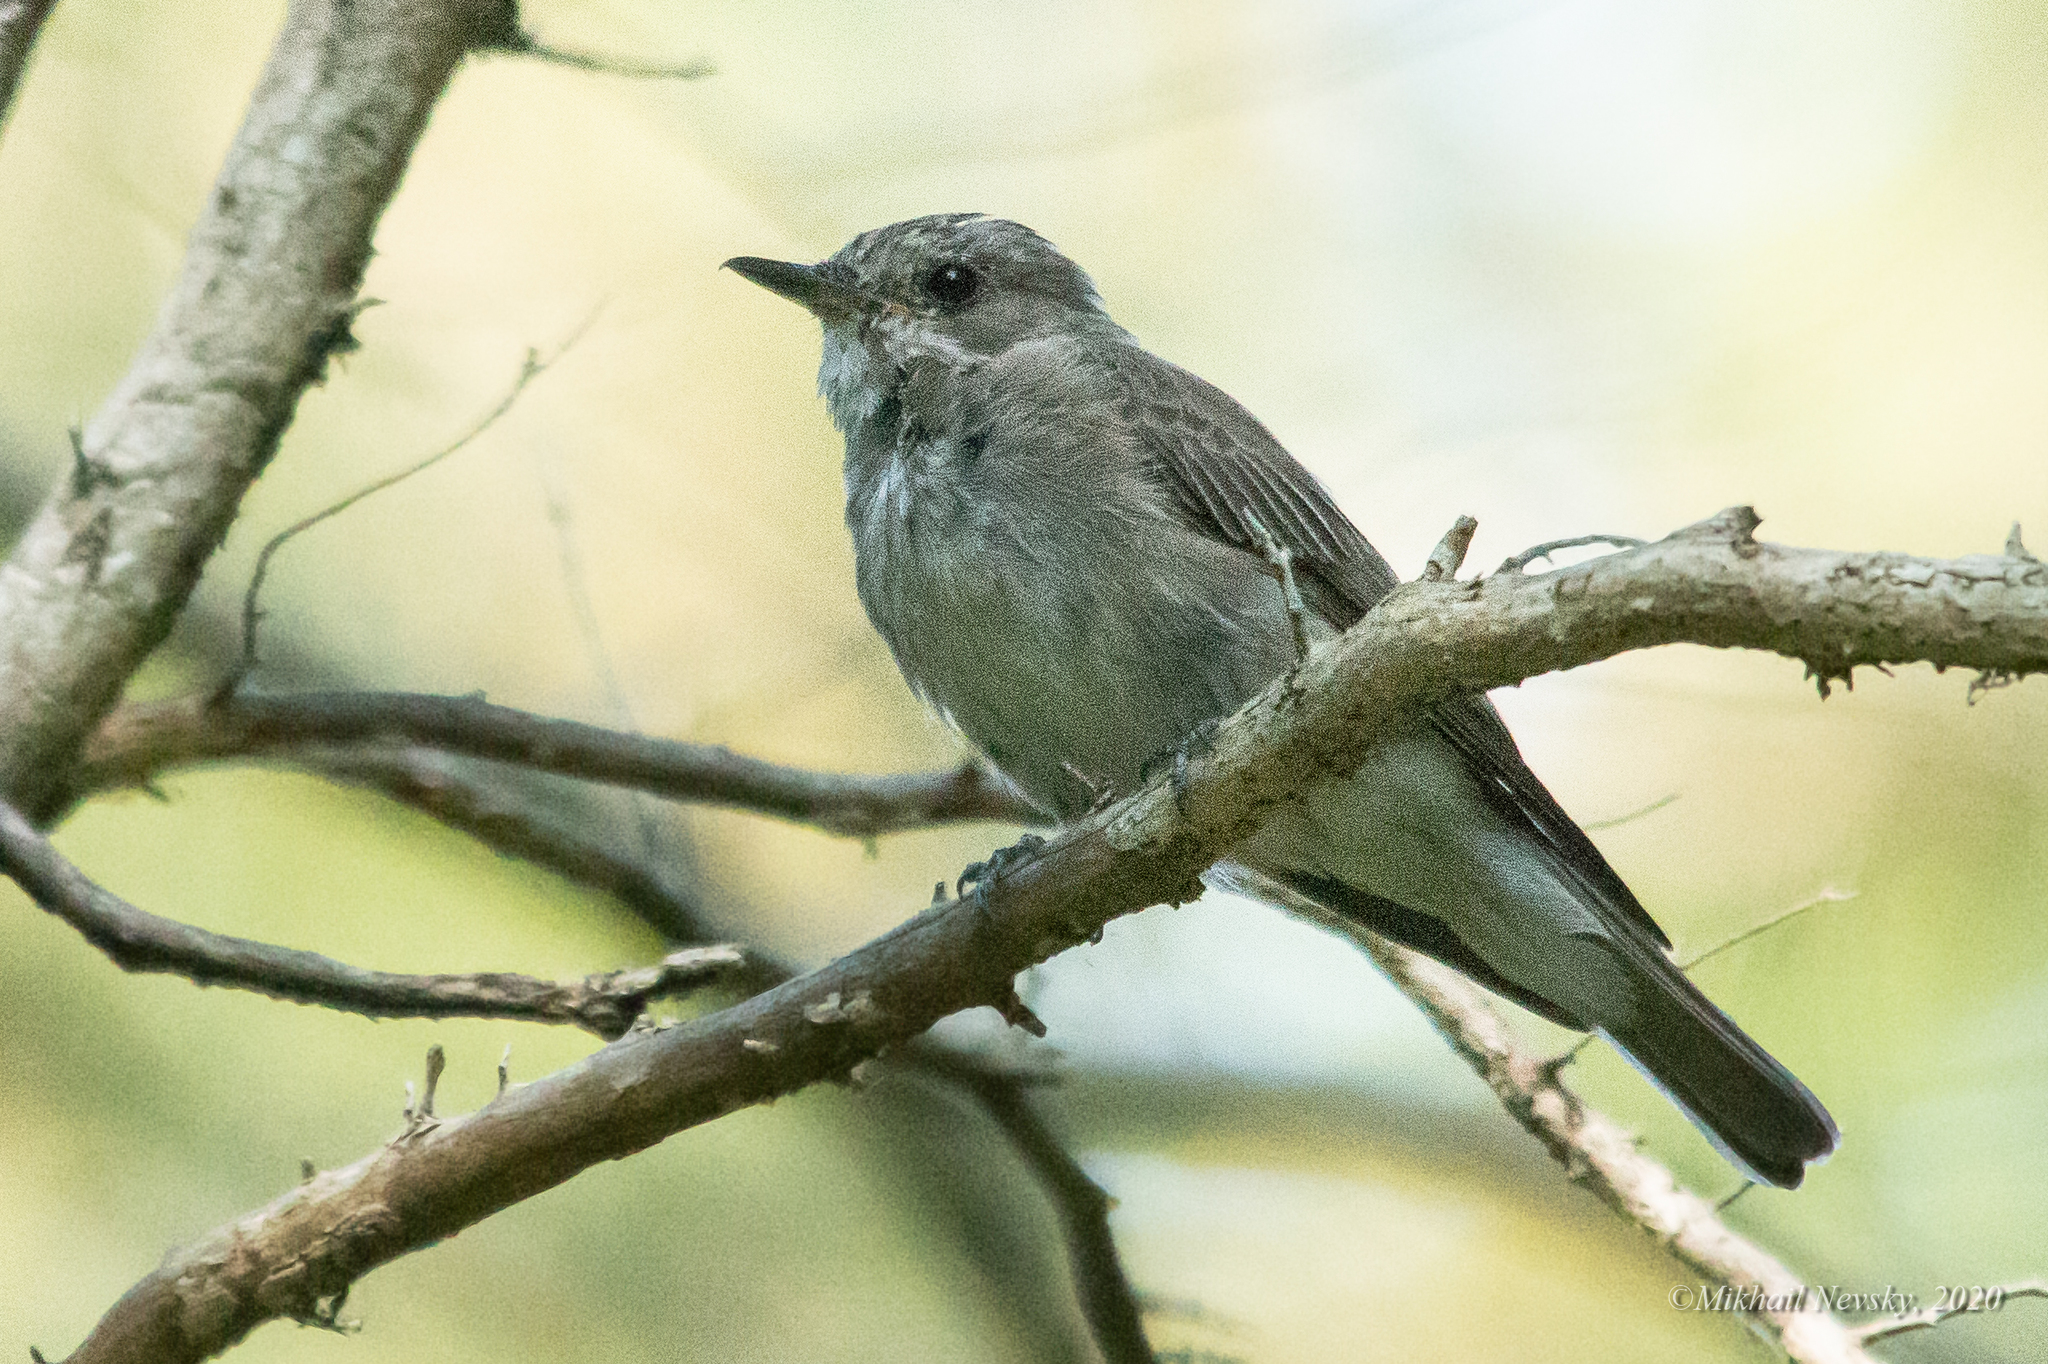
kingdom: Animalia
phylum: Chordata
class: Aves
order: Passeriformes
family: Muscicapidae
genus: Muscicapa
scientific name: Muscicapa striata
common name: Spotted flycatcher
